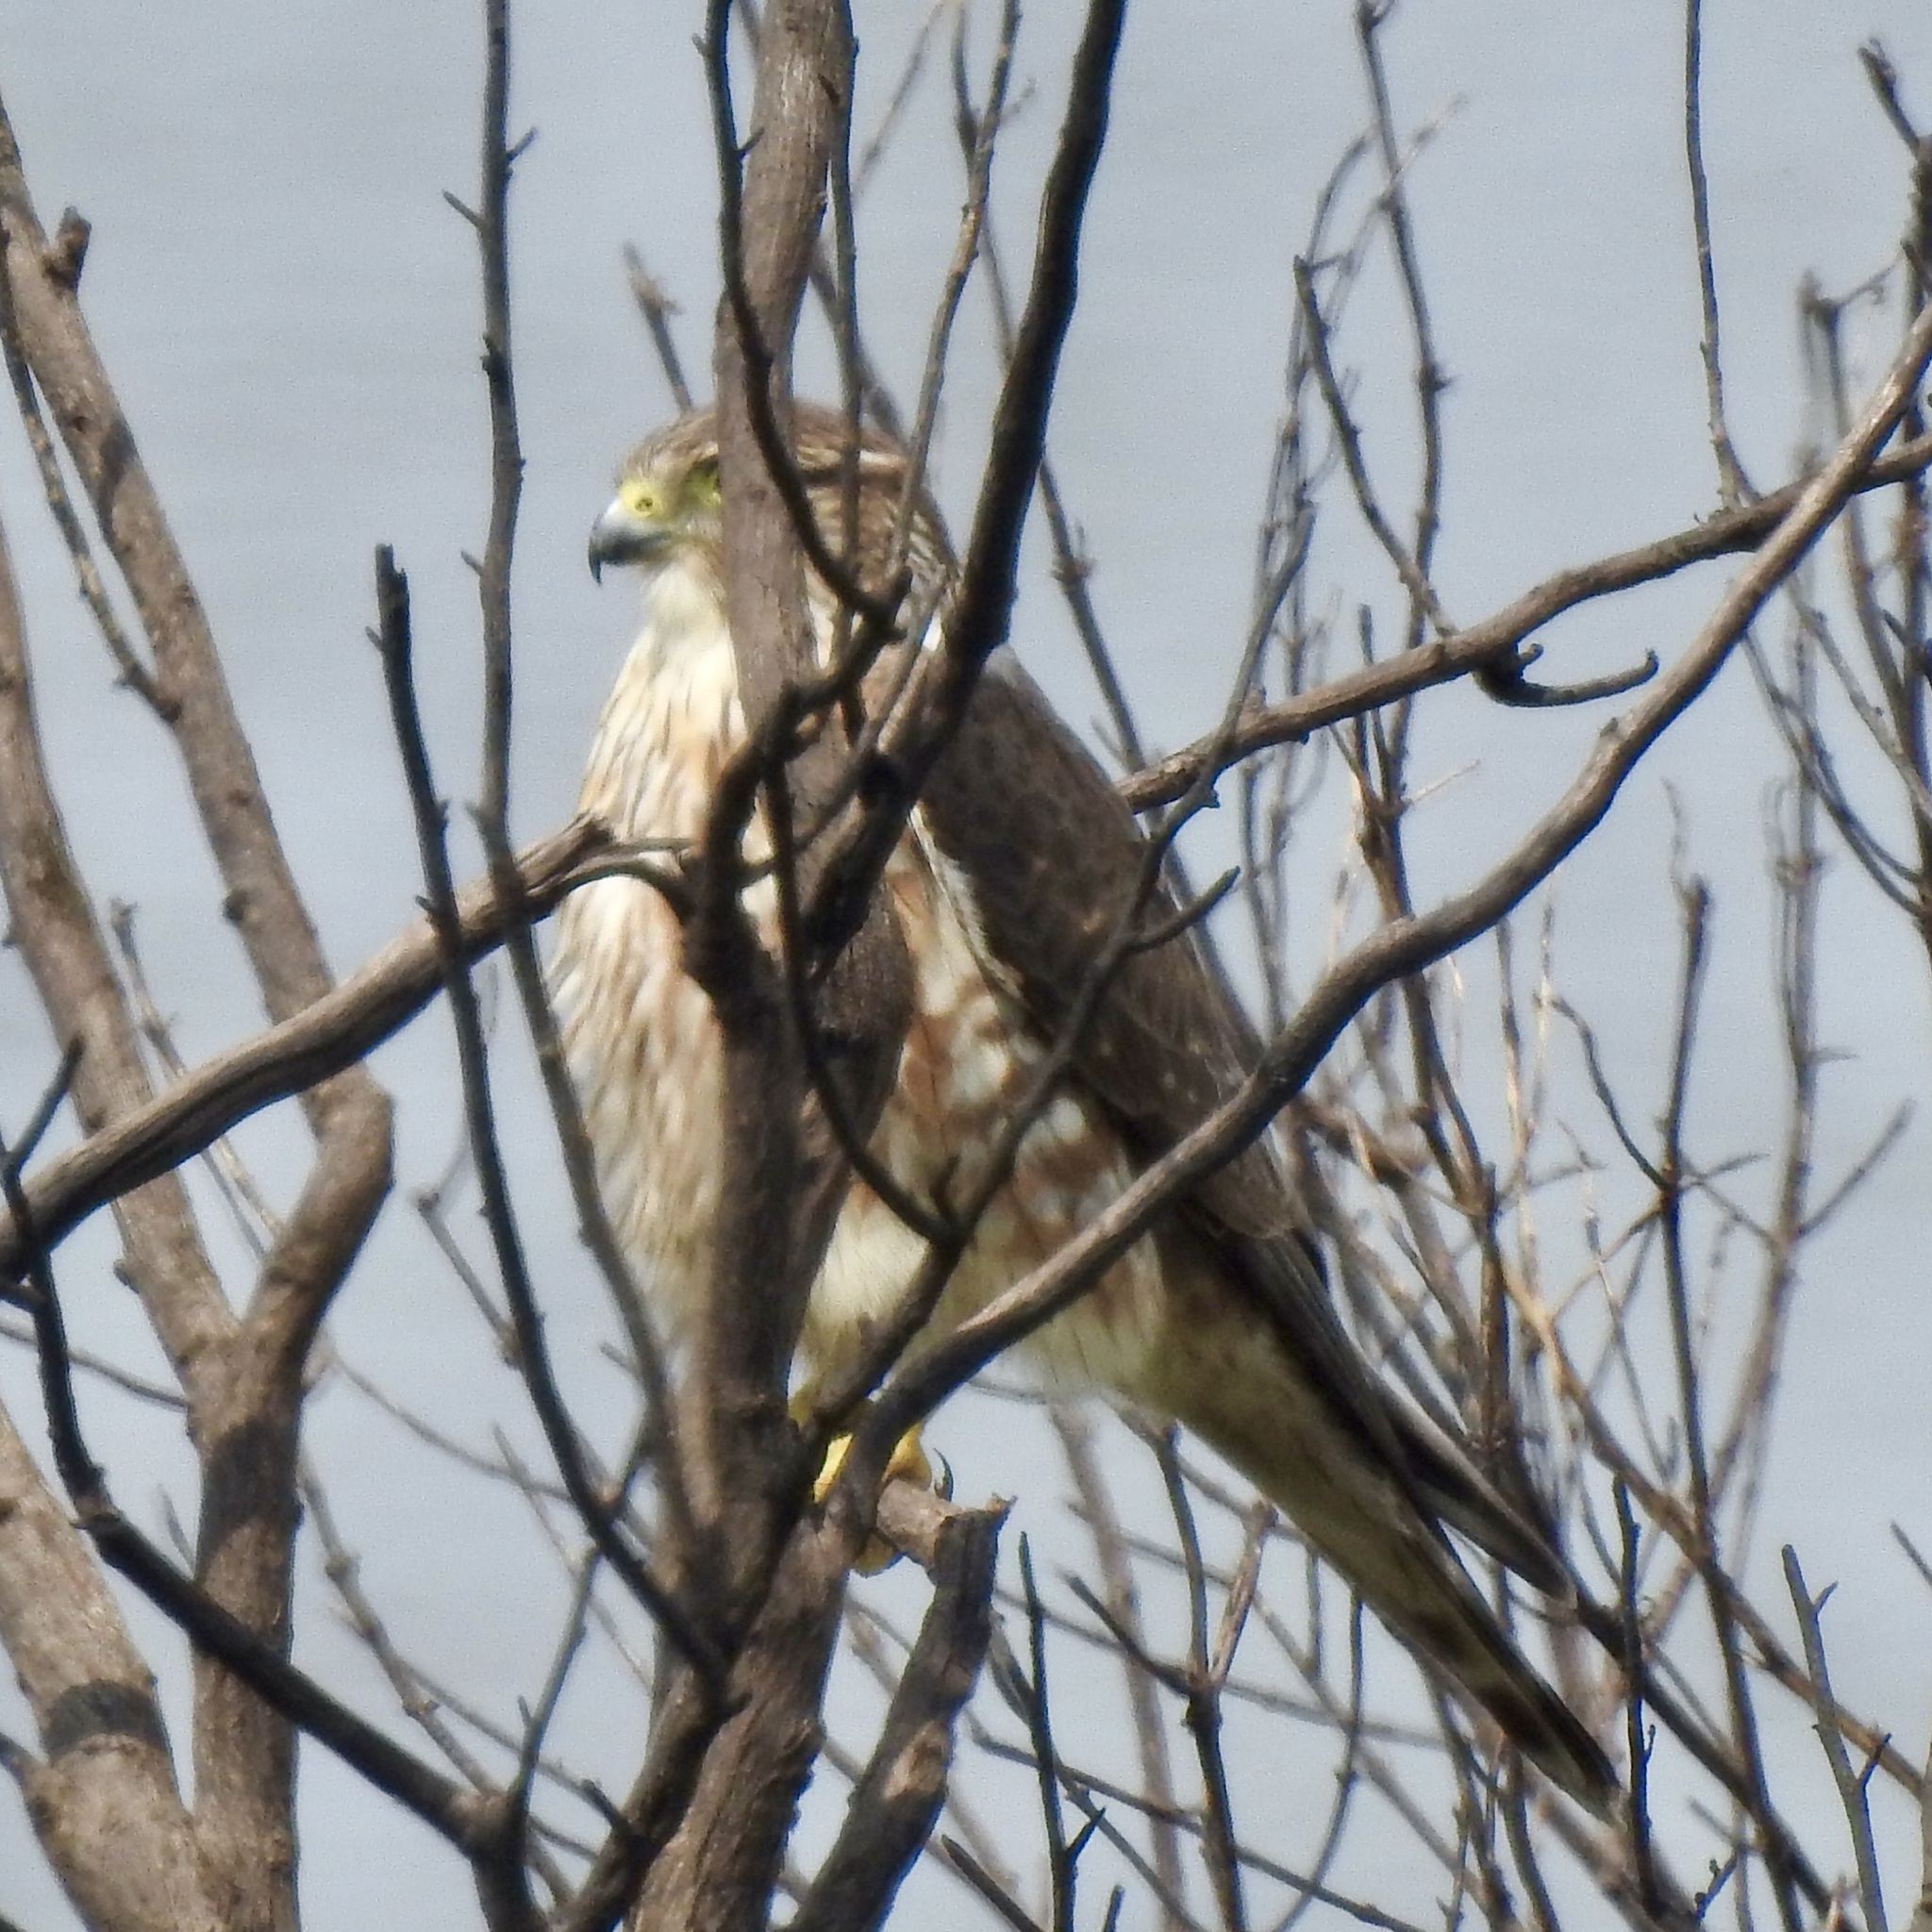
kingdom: Animalia
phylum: Chordata
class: Aves
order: Falconiformes
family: Falconidae
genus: Falco
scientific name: Falco columbarius
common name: Merlin
